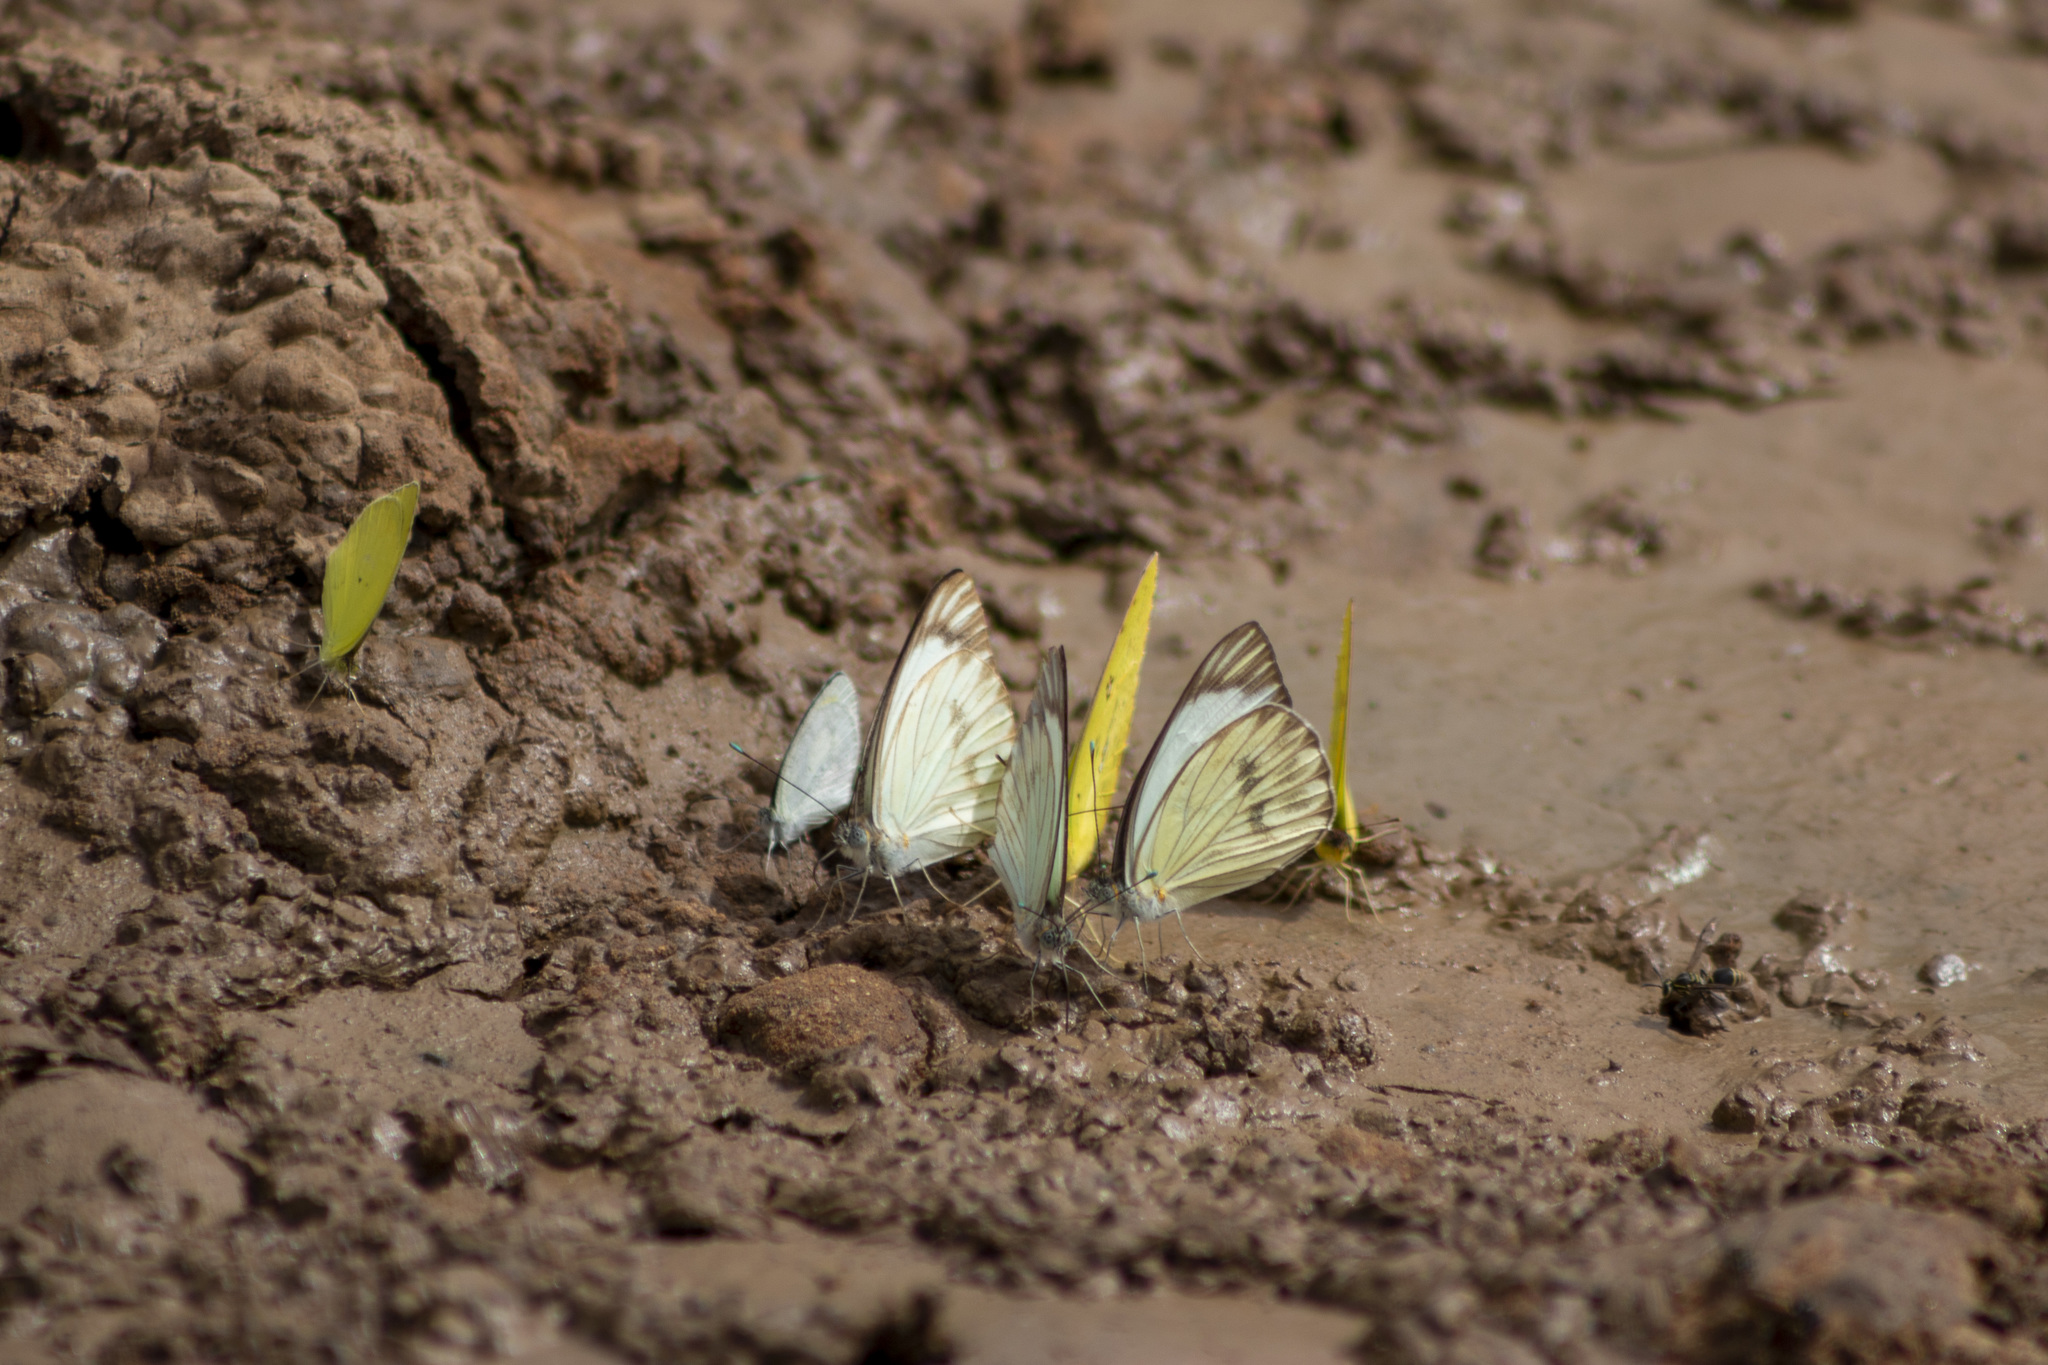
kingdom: Animalia
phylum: Arthropoda
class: Insecta
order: Lepidoptera
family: Pieridae
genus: Ascia
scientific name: Ascia monuste
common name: Great southern white
